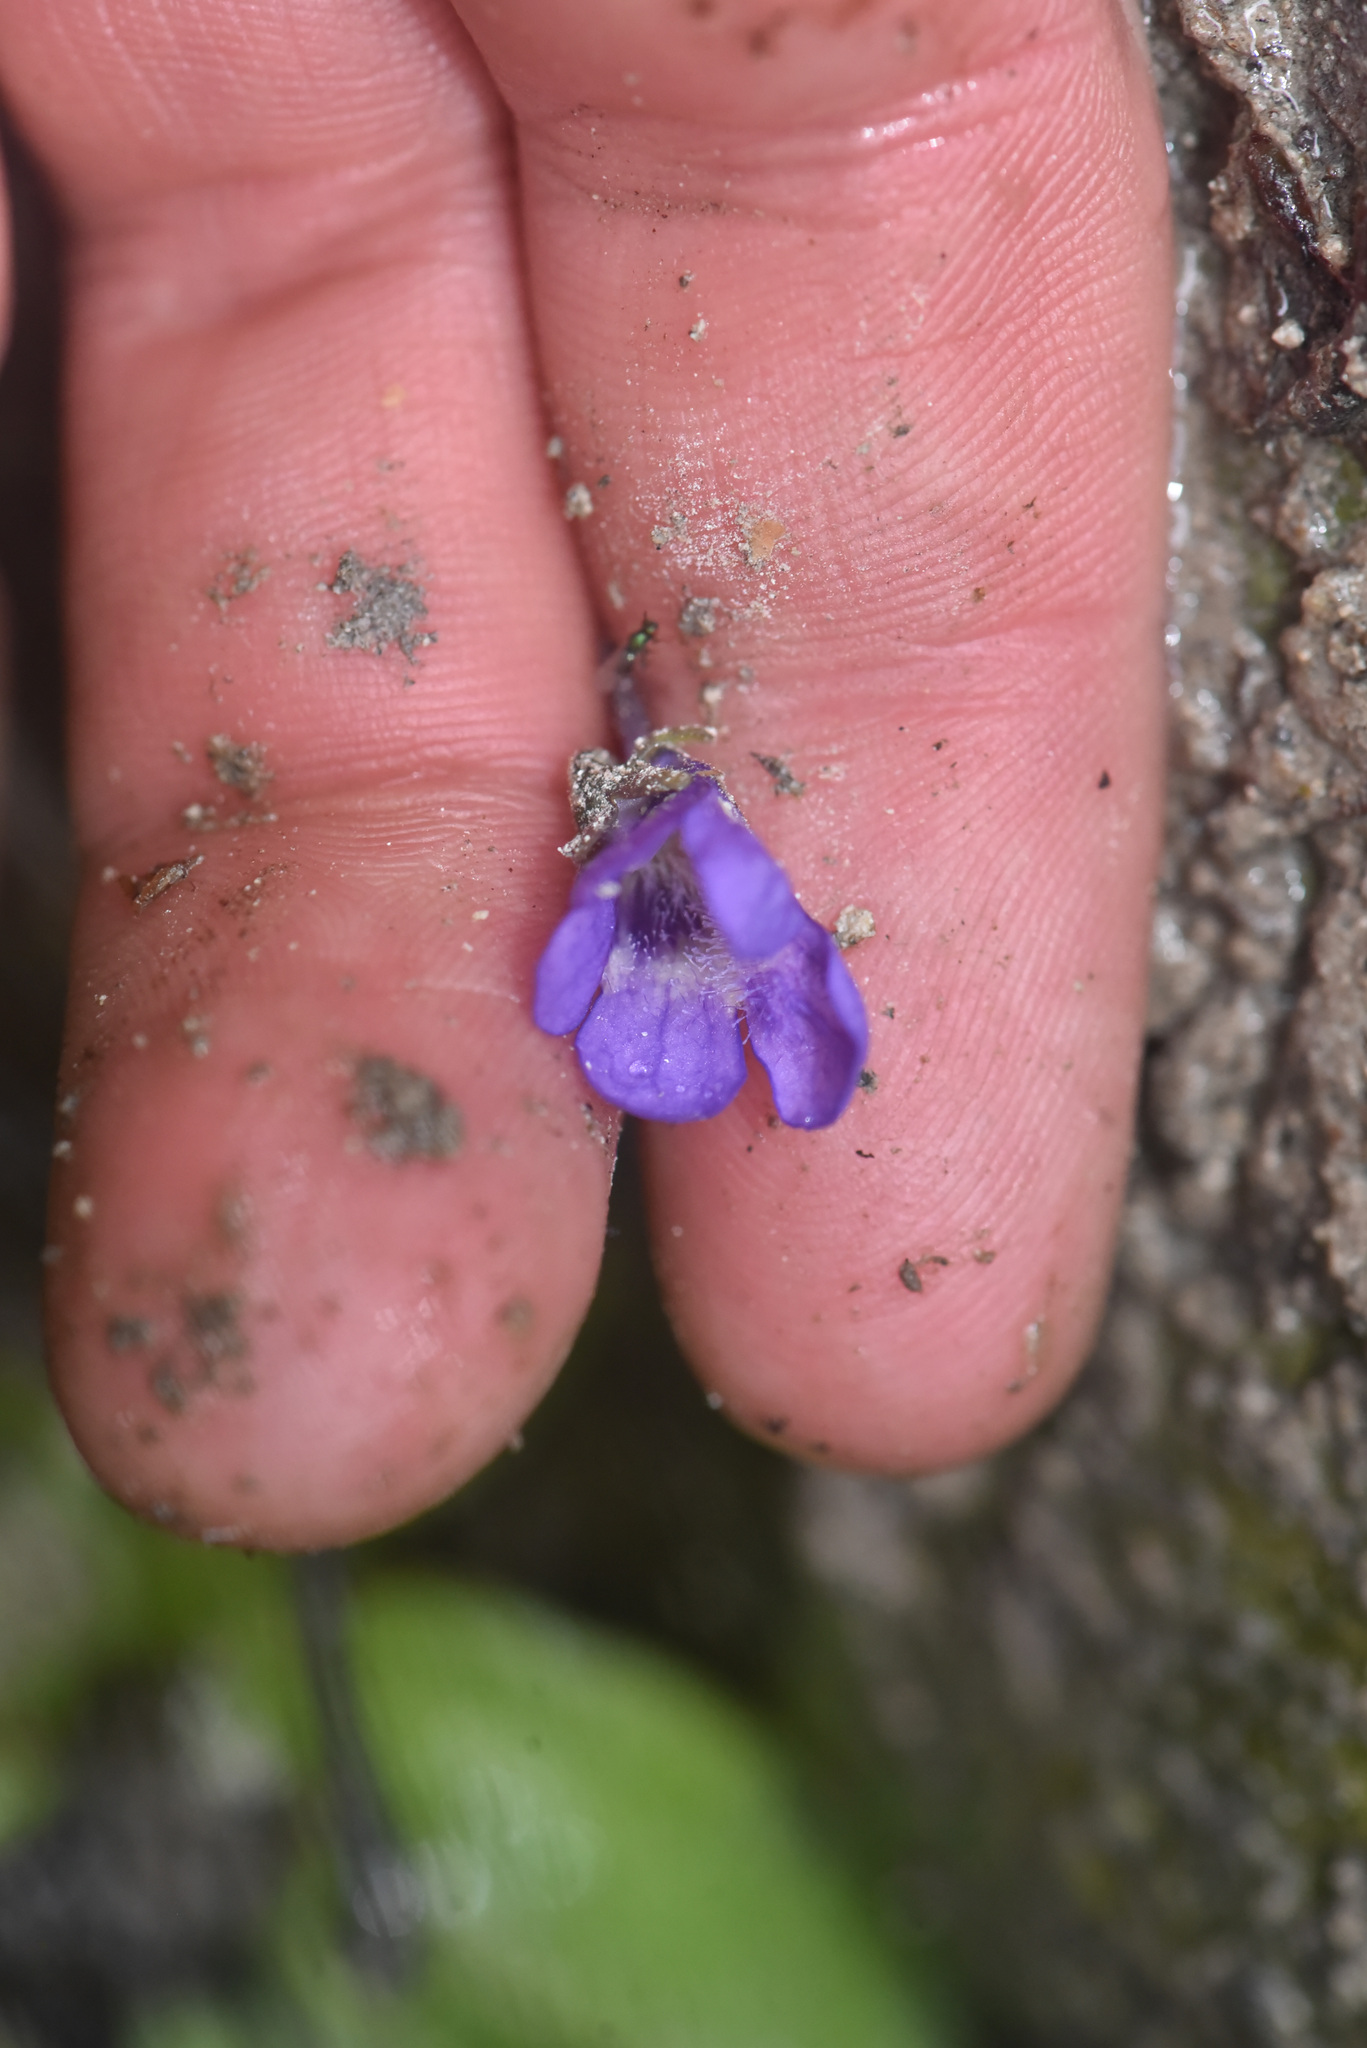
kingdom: Plantae
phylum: Tracheophyta
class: Magnoliopsida
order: Lamiales
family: Lentibulariaceae
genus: Pinguicula
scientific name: Pinguicula vulgaris
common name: Common butterwort
